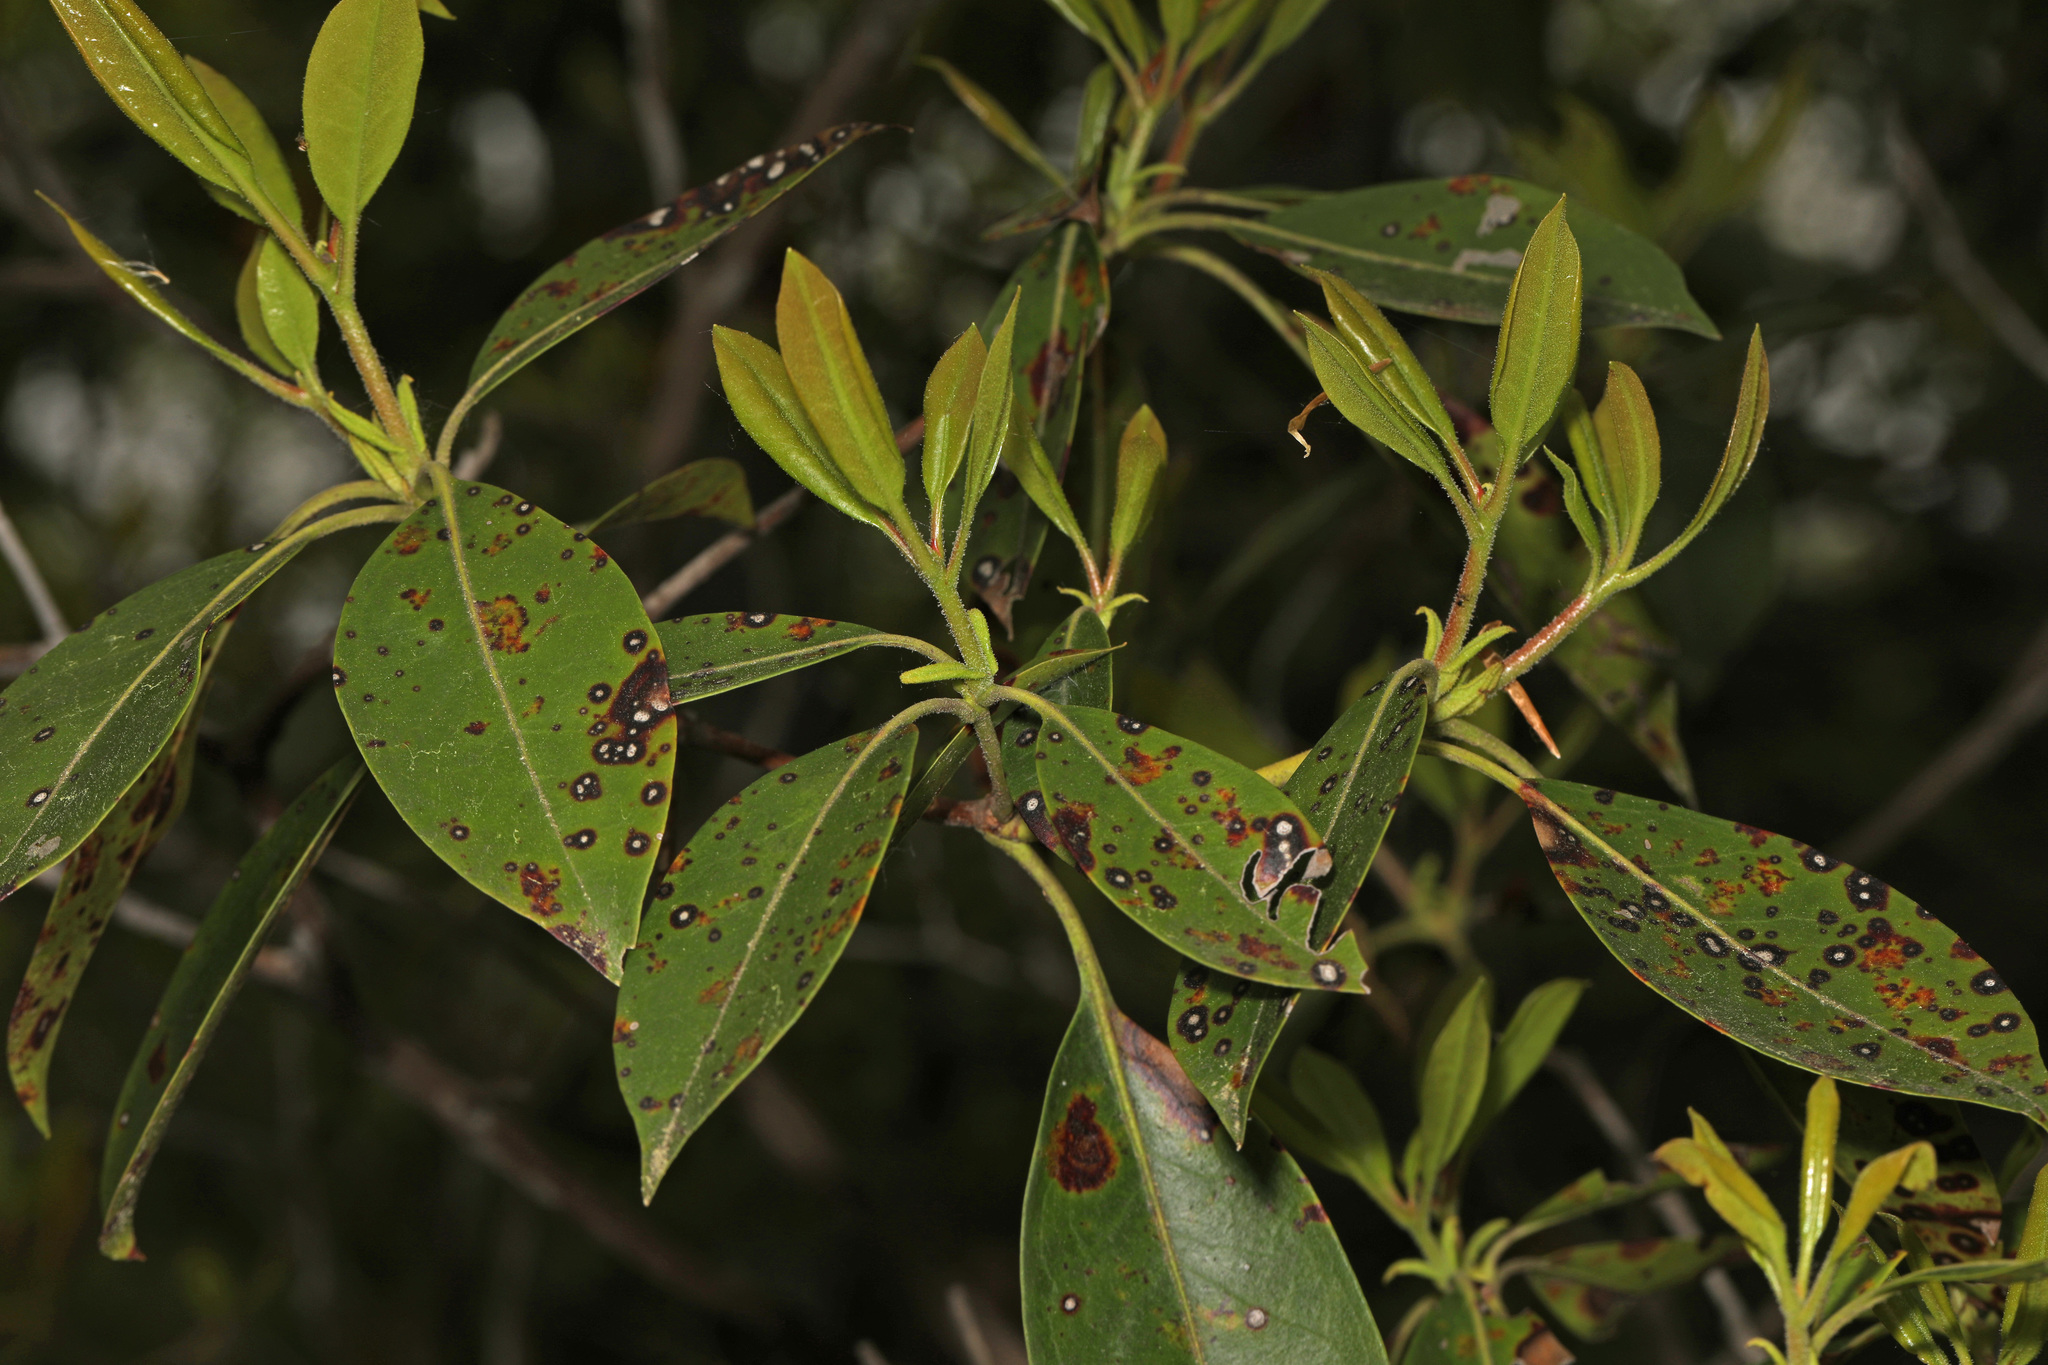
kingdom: Plantae
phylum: Tracheophyta
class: Magnoliopsida
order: Ericales
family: Ericaceae
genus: Kalmia
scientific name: Kalmia latifolia
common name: Mountain-laurel
